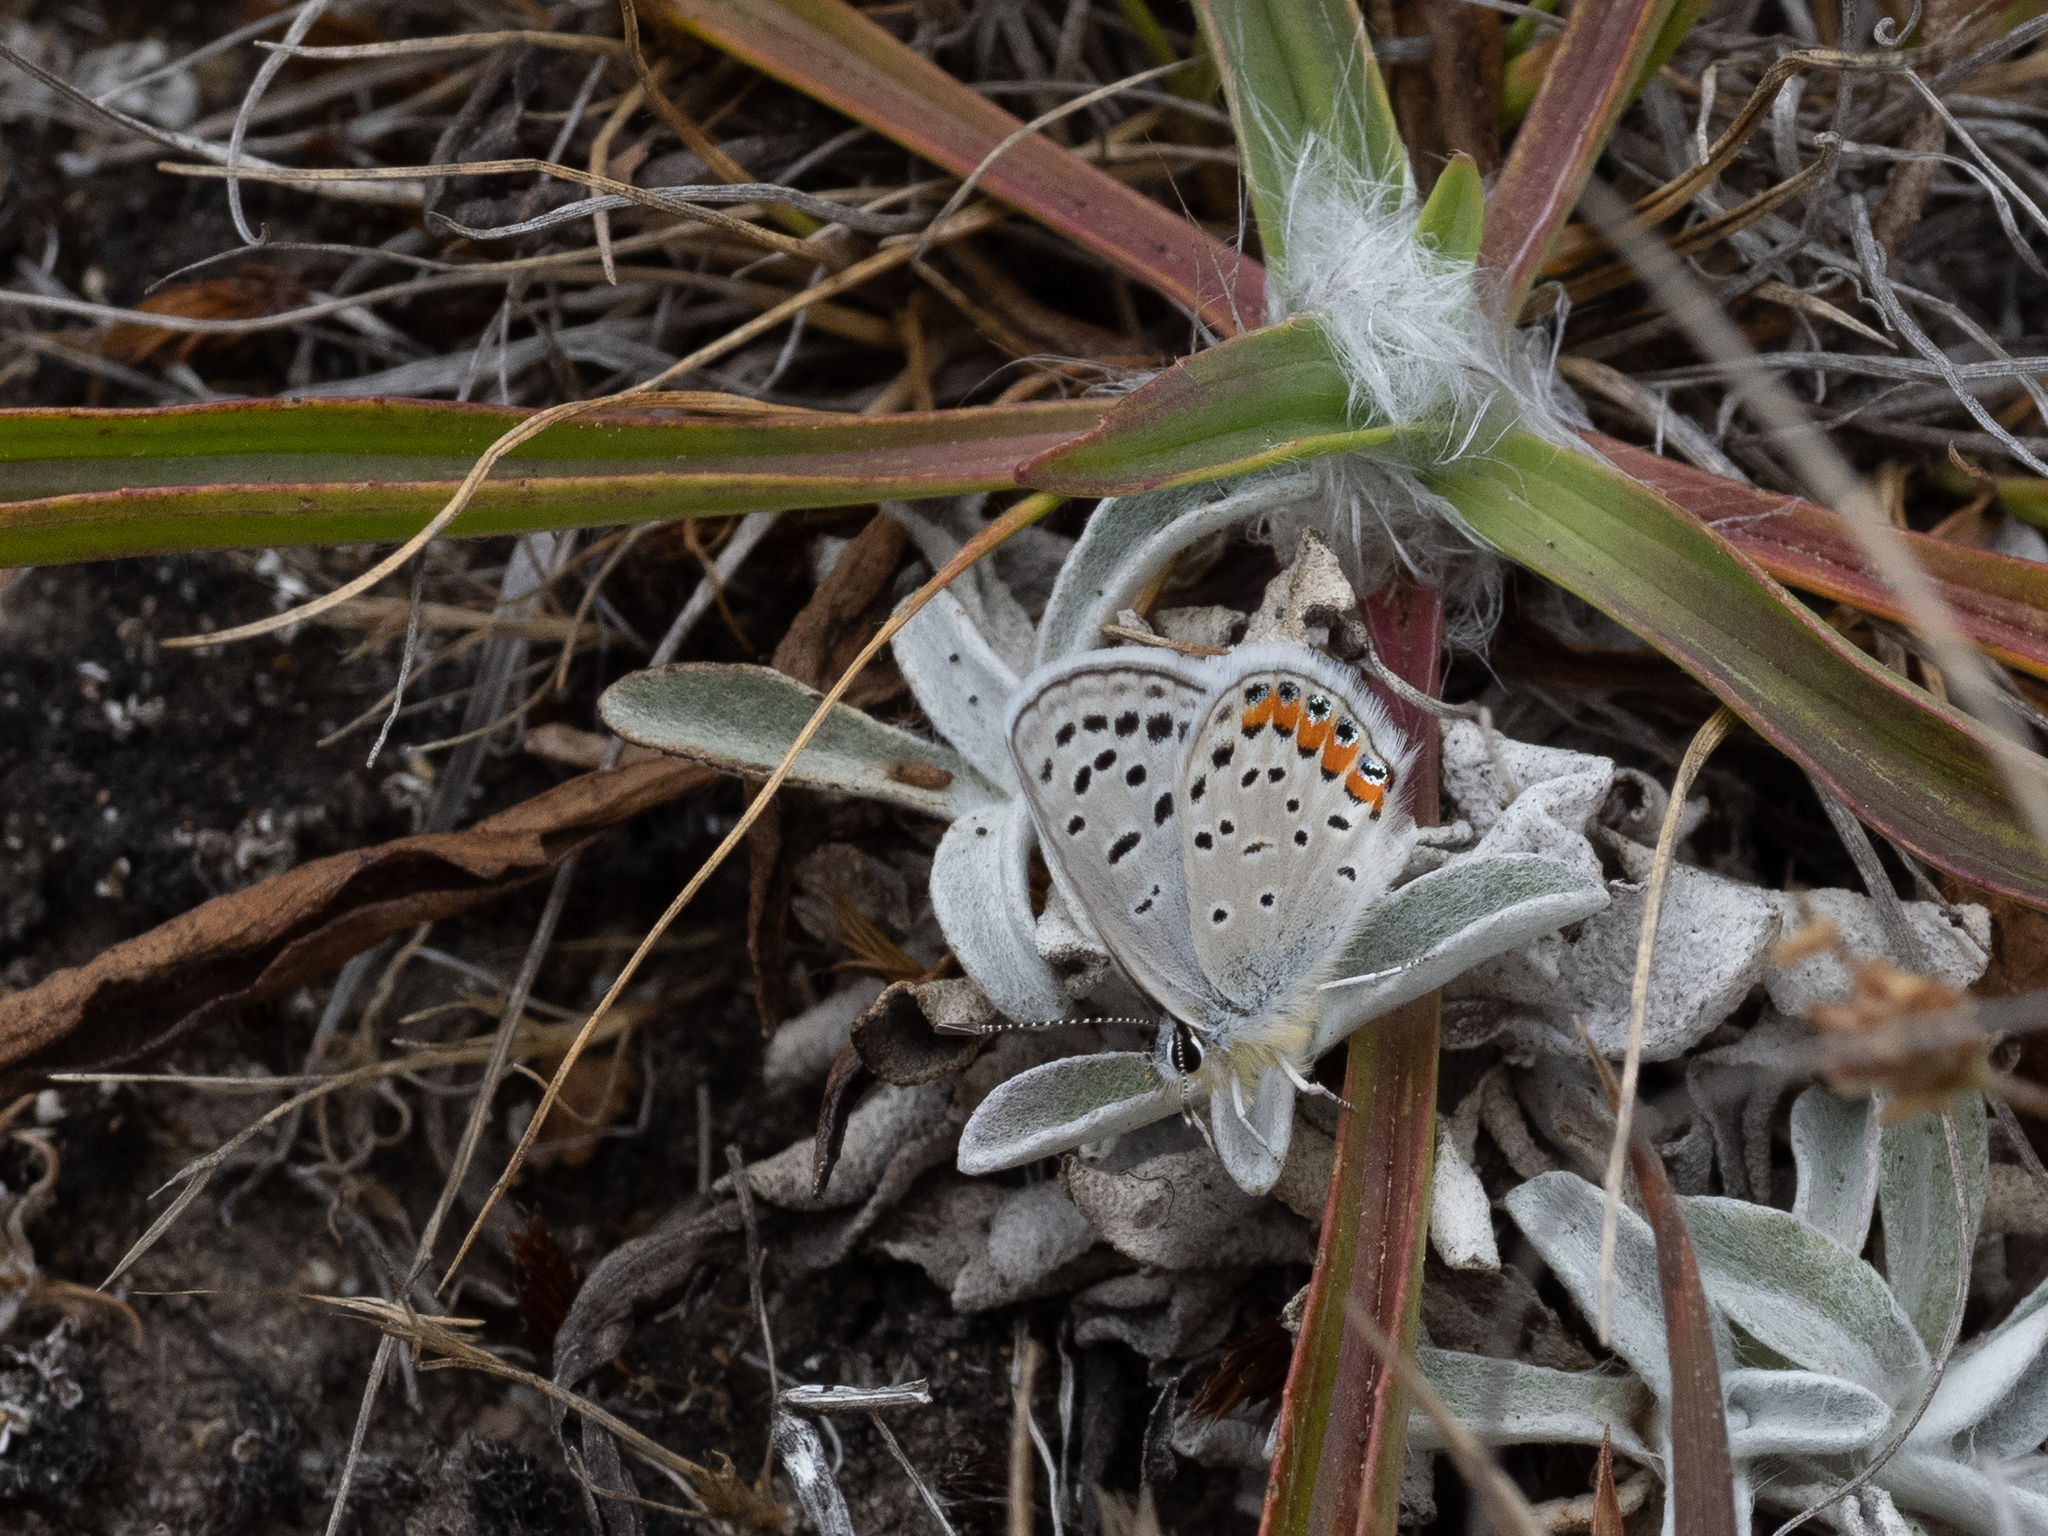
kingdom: Animalia
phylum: Arthropoda
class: Insecta
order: Lepidoptera
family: Lycaenidae
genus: Icaricia
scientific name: Icaricia acmon
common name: Acmon blue
